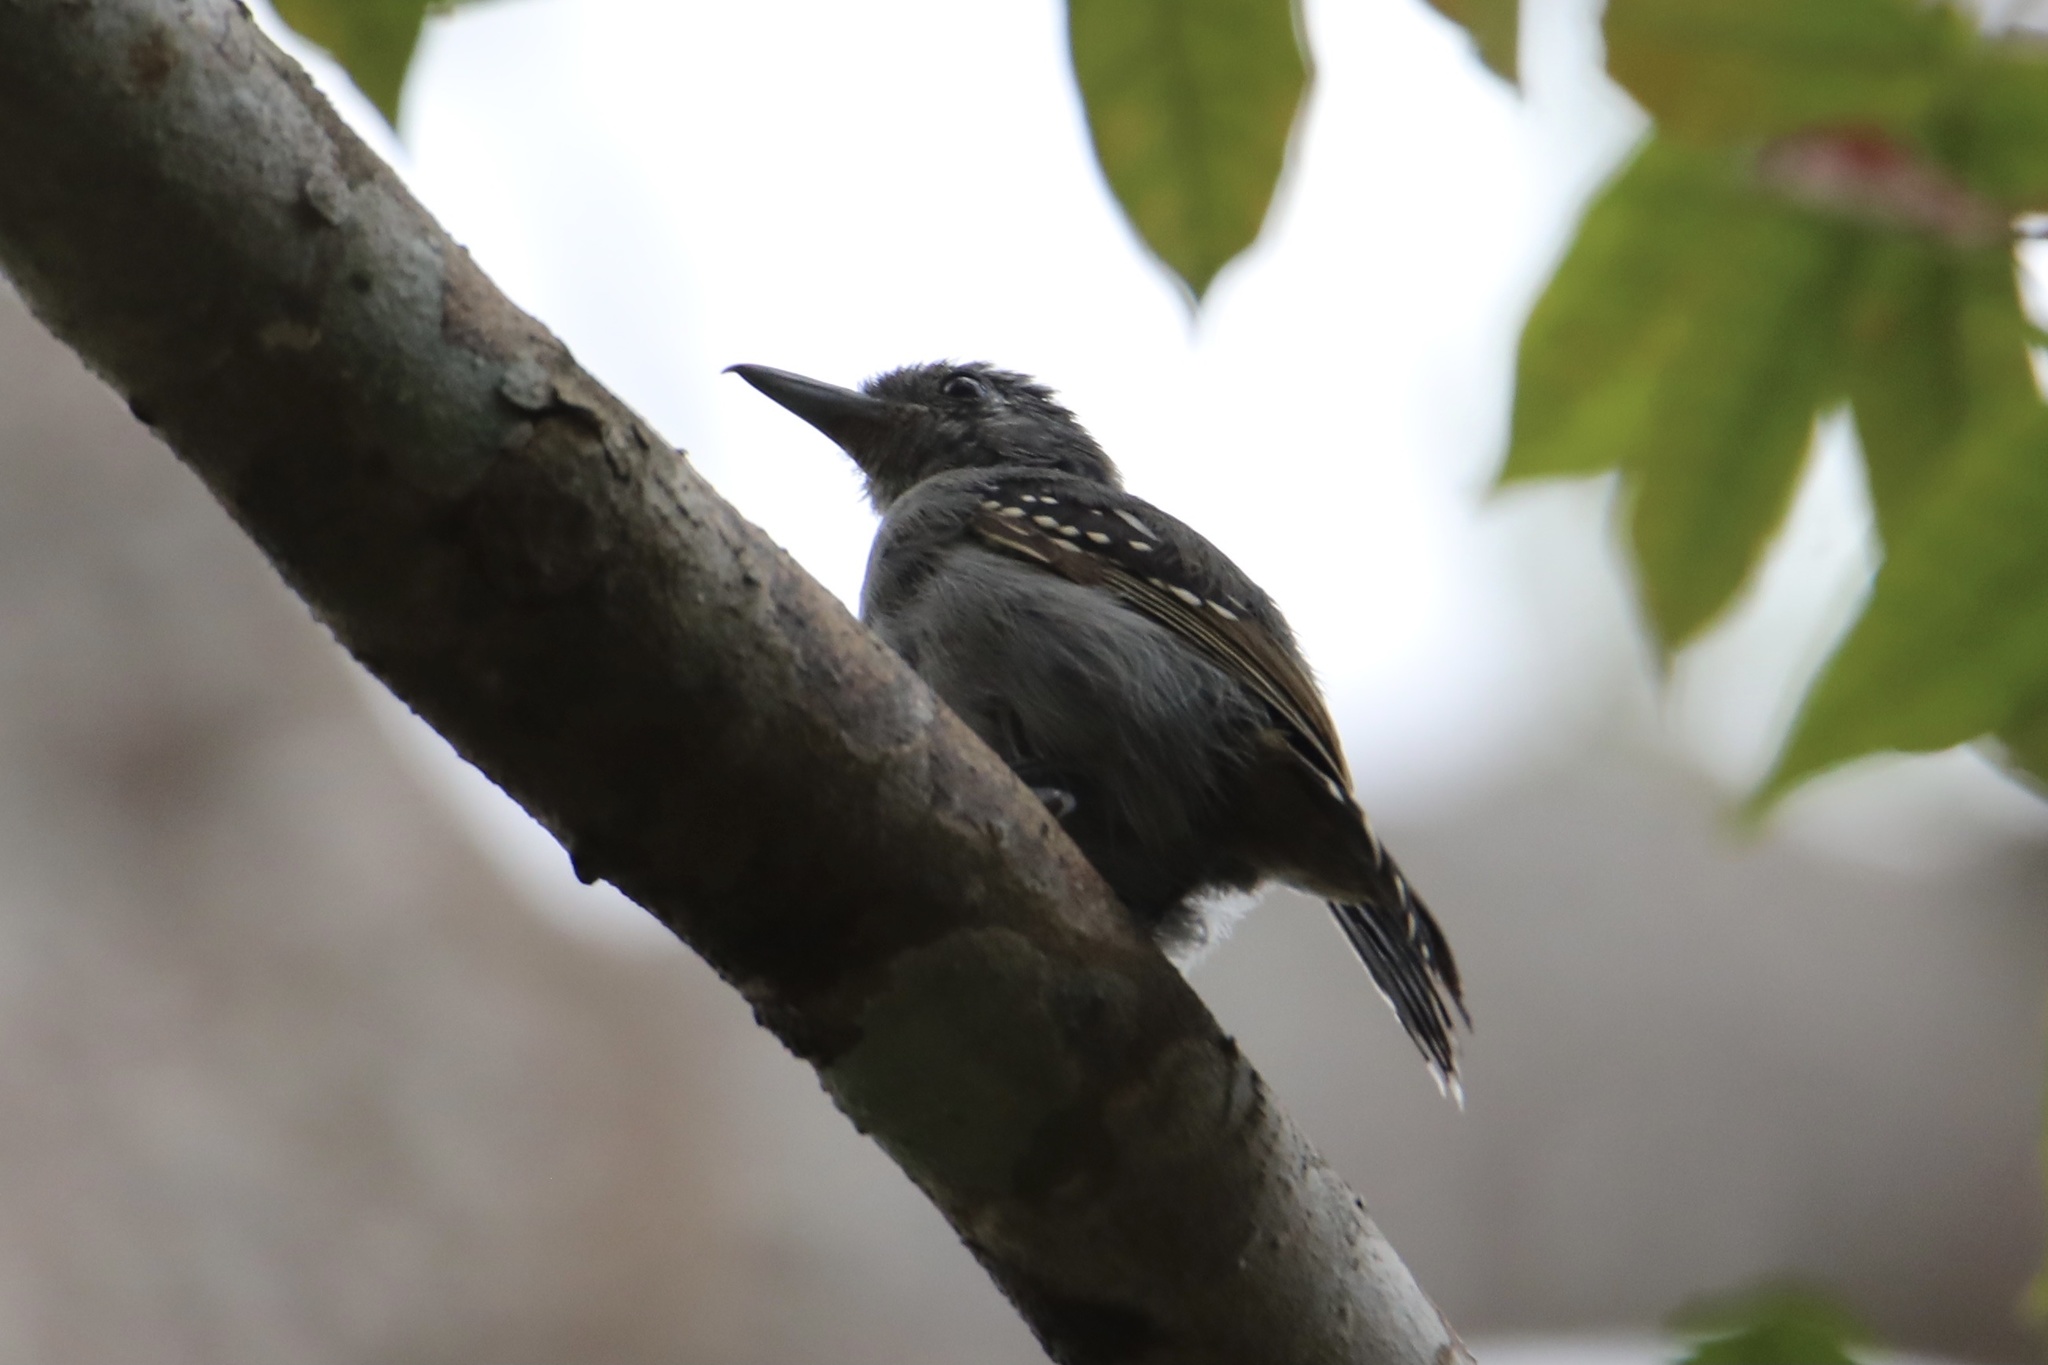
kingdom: Animalia
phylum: Chordata
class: Aves
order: Passeriformes
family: Thamnophilidae
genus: Thamnophilus
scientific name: Thamnophilus atrinucha
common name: Black-crowned antshrike
